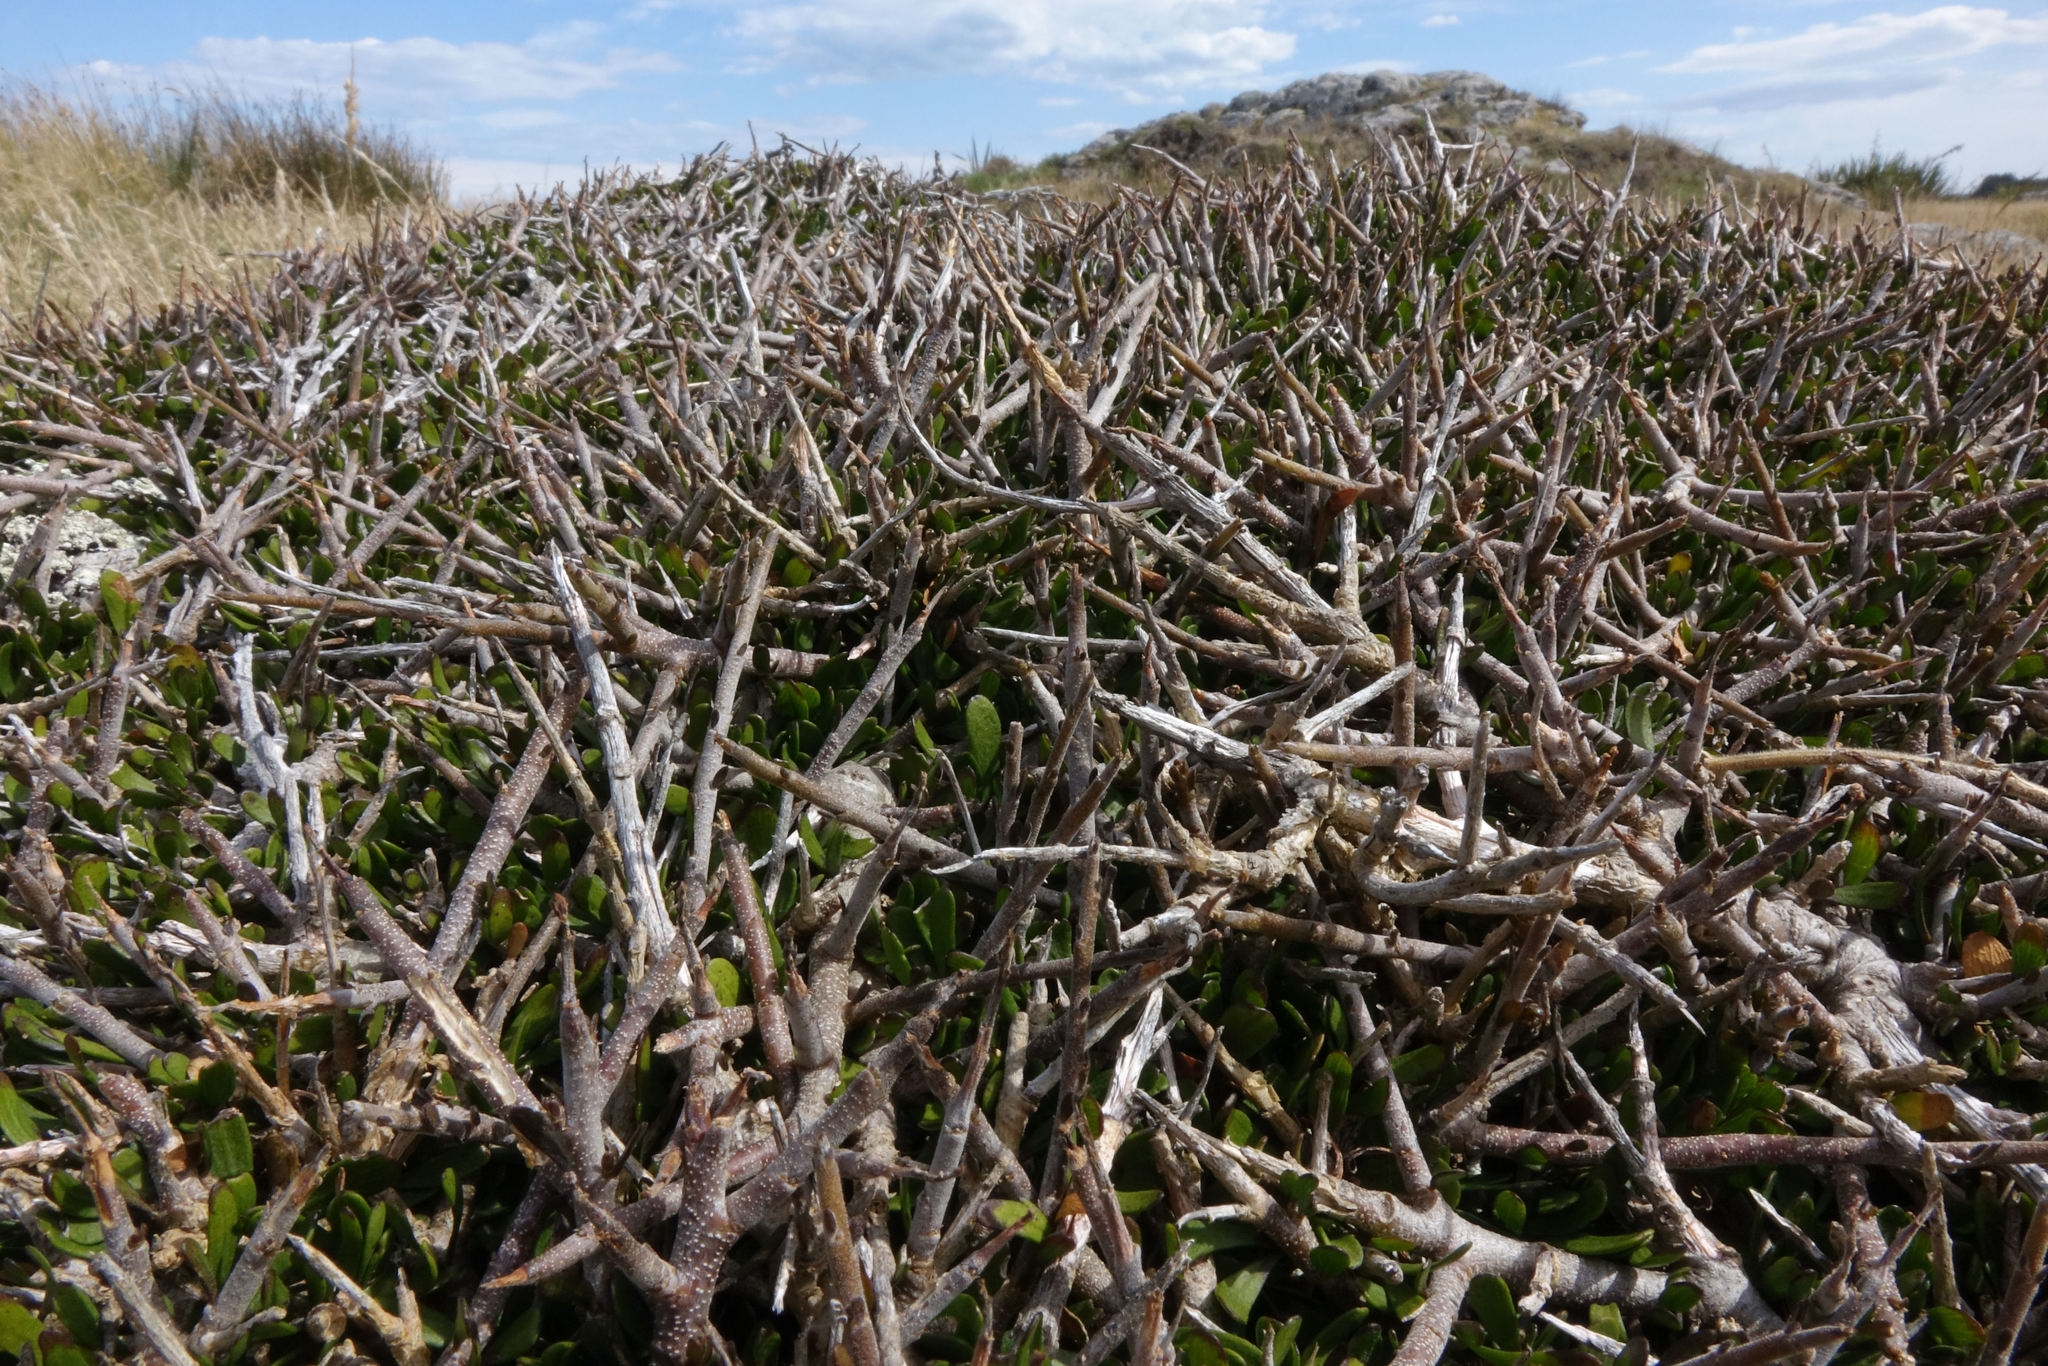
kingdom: Plantae
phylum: Tracheophyta
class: Magnoliopsida
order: Malpighiales
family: Violaceae
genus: Melicytus
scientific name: Melicytus alpinus
